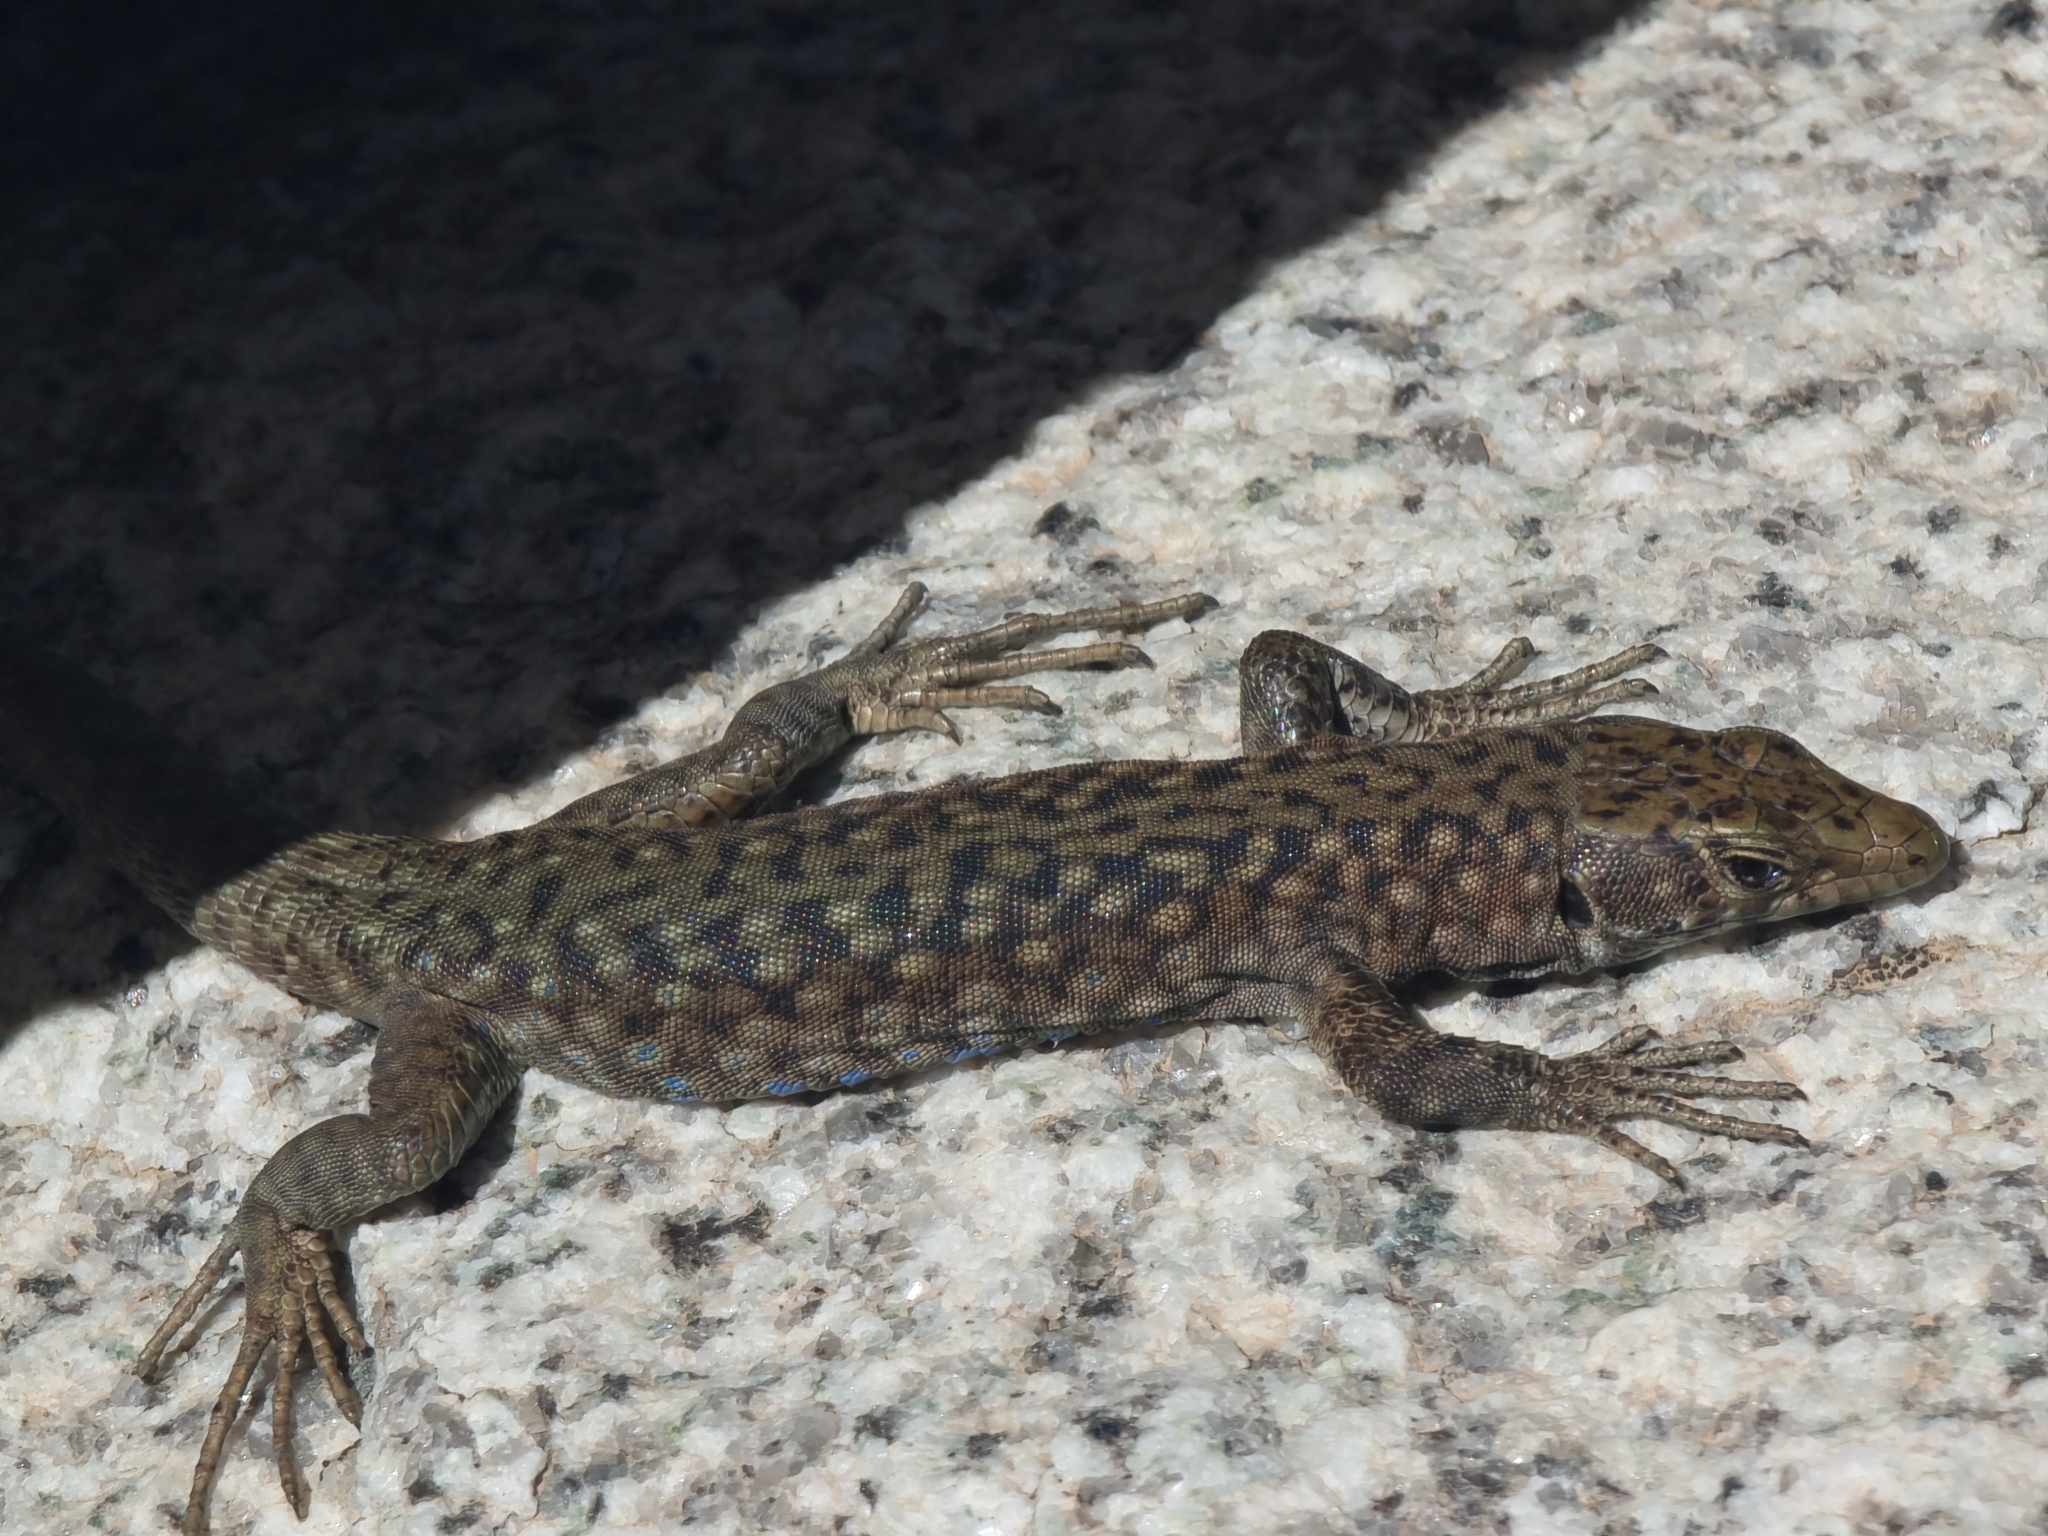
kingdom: Animalia
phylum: Chordata
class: Squamata
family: Lacertidae
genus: Archaeolacerta
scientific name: Archaeolacerta bedriagae
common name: Bedriaga's rock lizard
